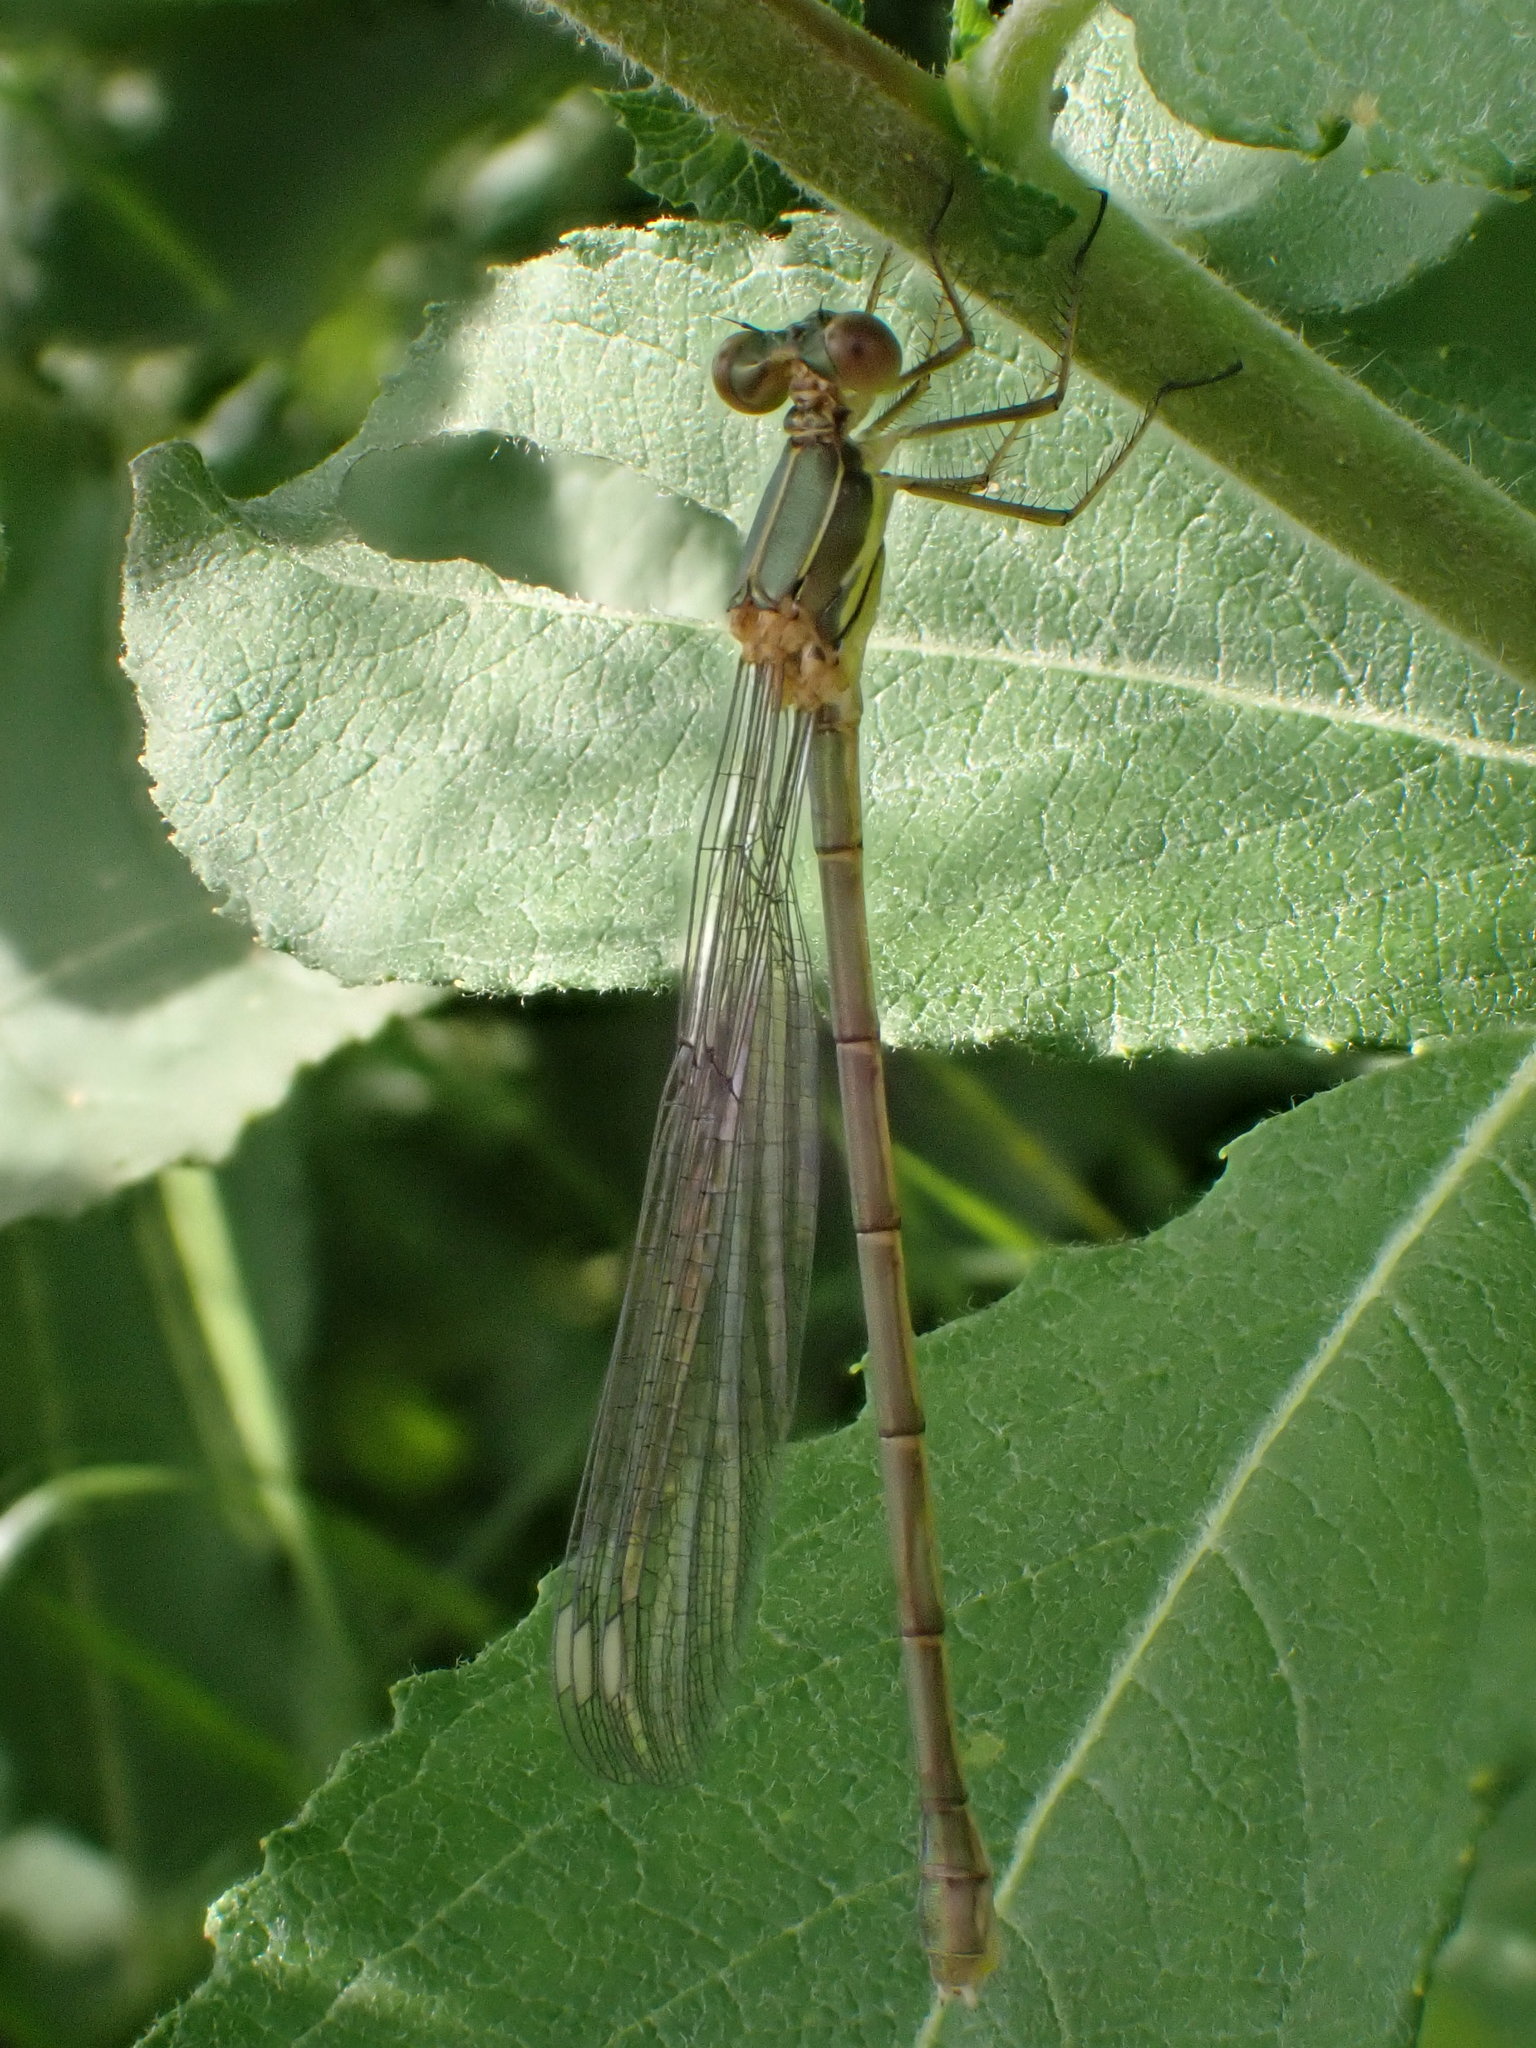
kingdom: Animalia
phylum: Arthropoda
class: Insecta
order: Odonata
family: Lestidae
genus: Chalcolestes
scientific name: Chalcolestes viridis
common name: Green emerald damselfly
